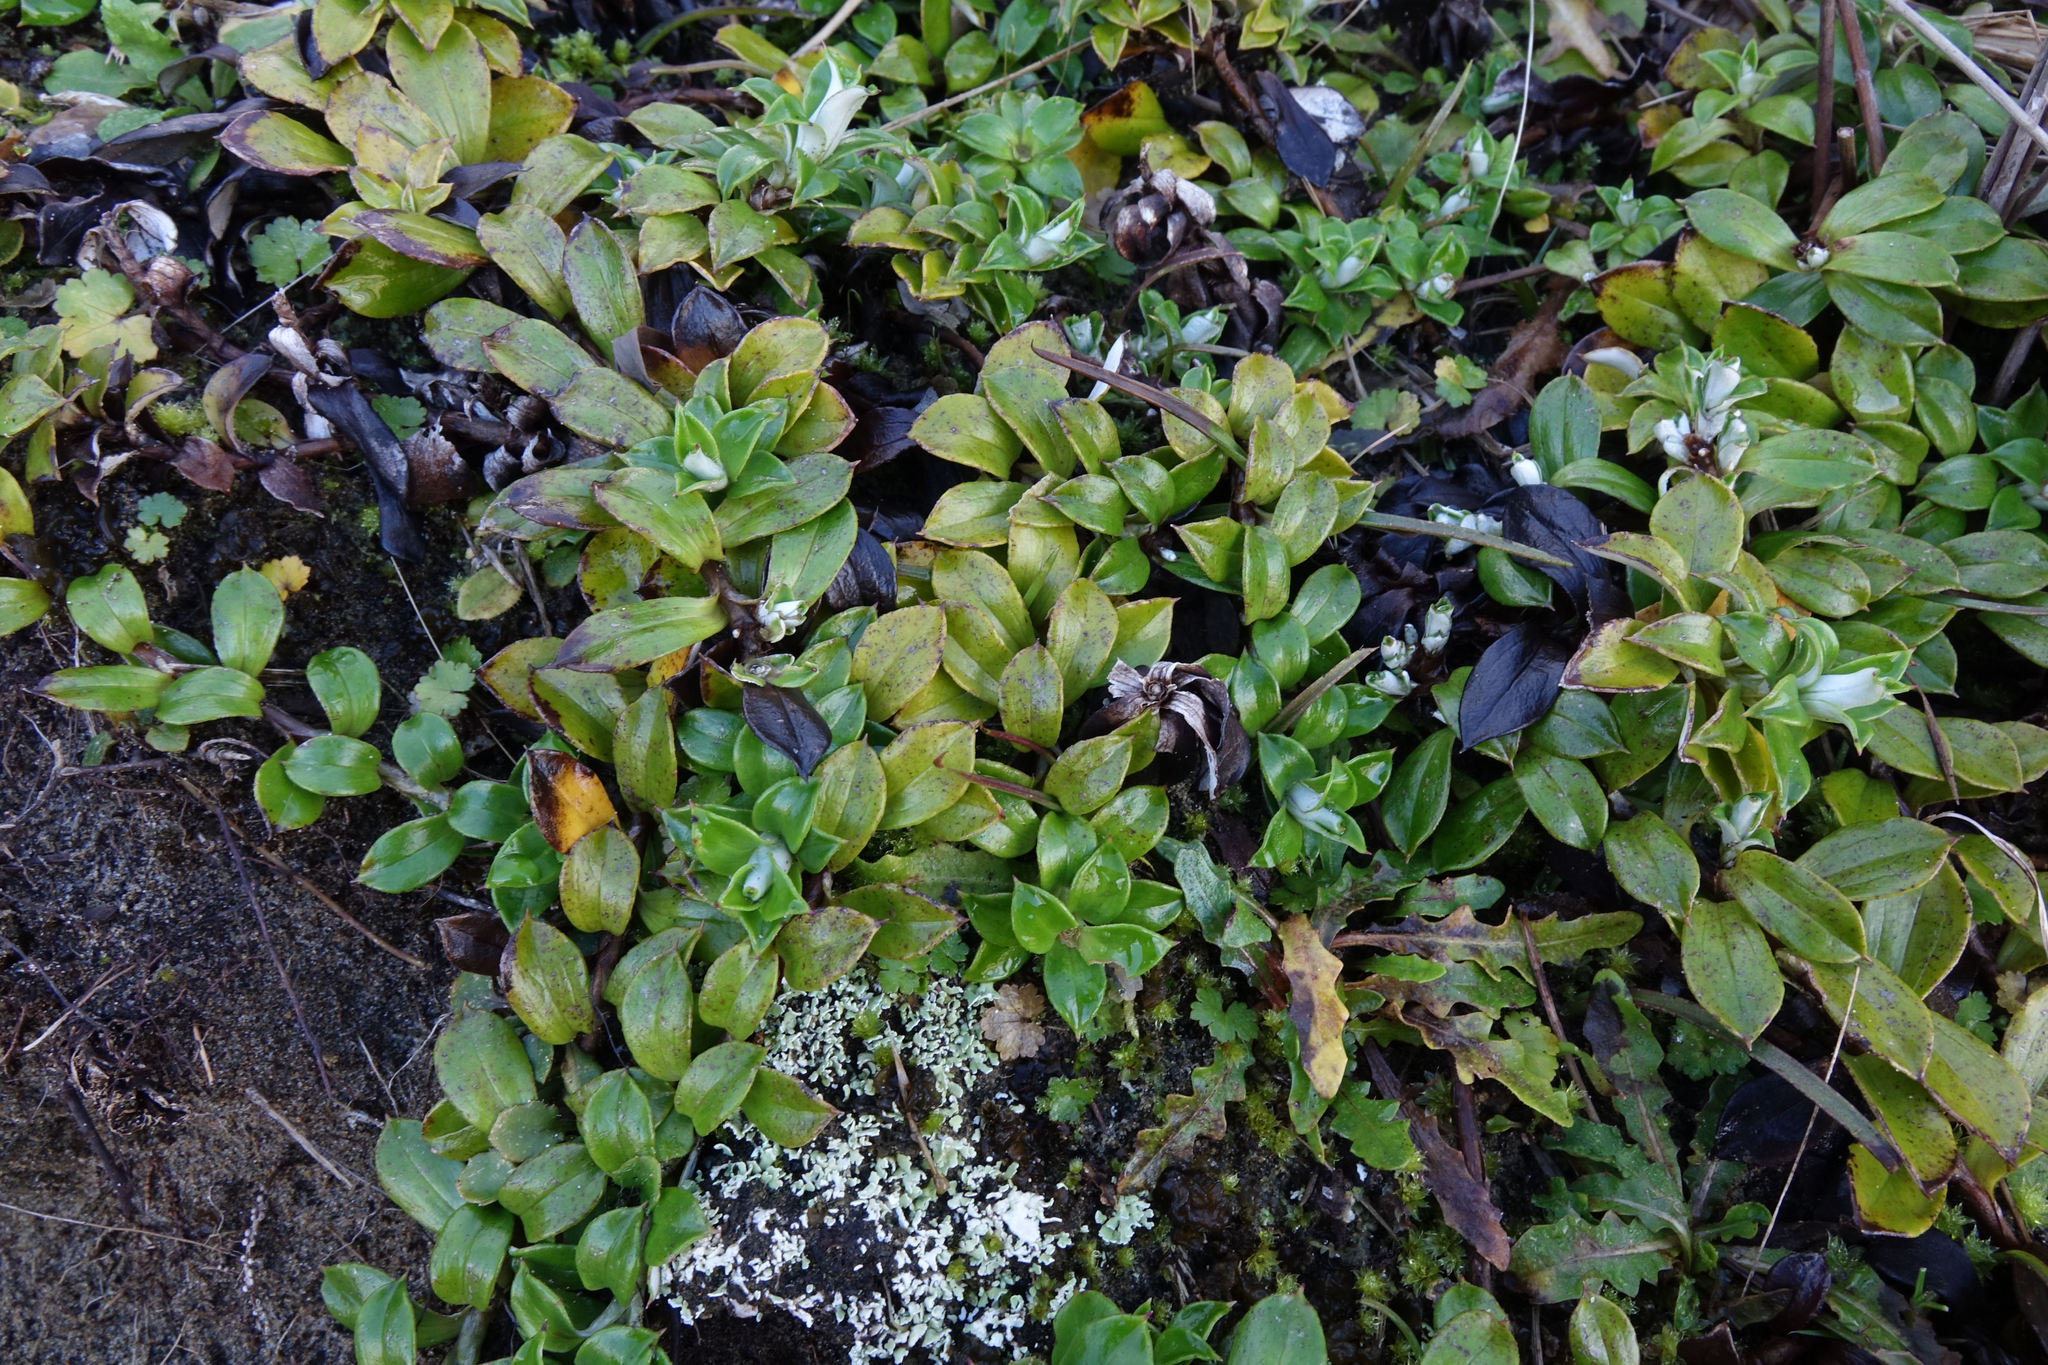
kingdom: Plantae
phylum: Tracheophyta
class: Magnoliopsida
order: Asterales
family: Asteraceae
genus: Anaphalioides
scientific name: Anaphalioides hookeri
